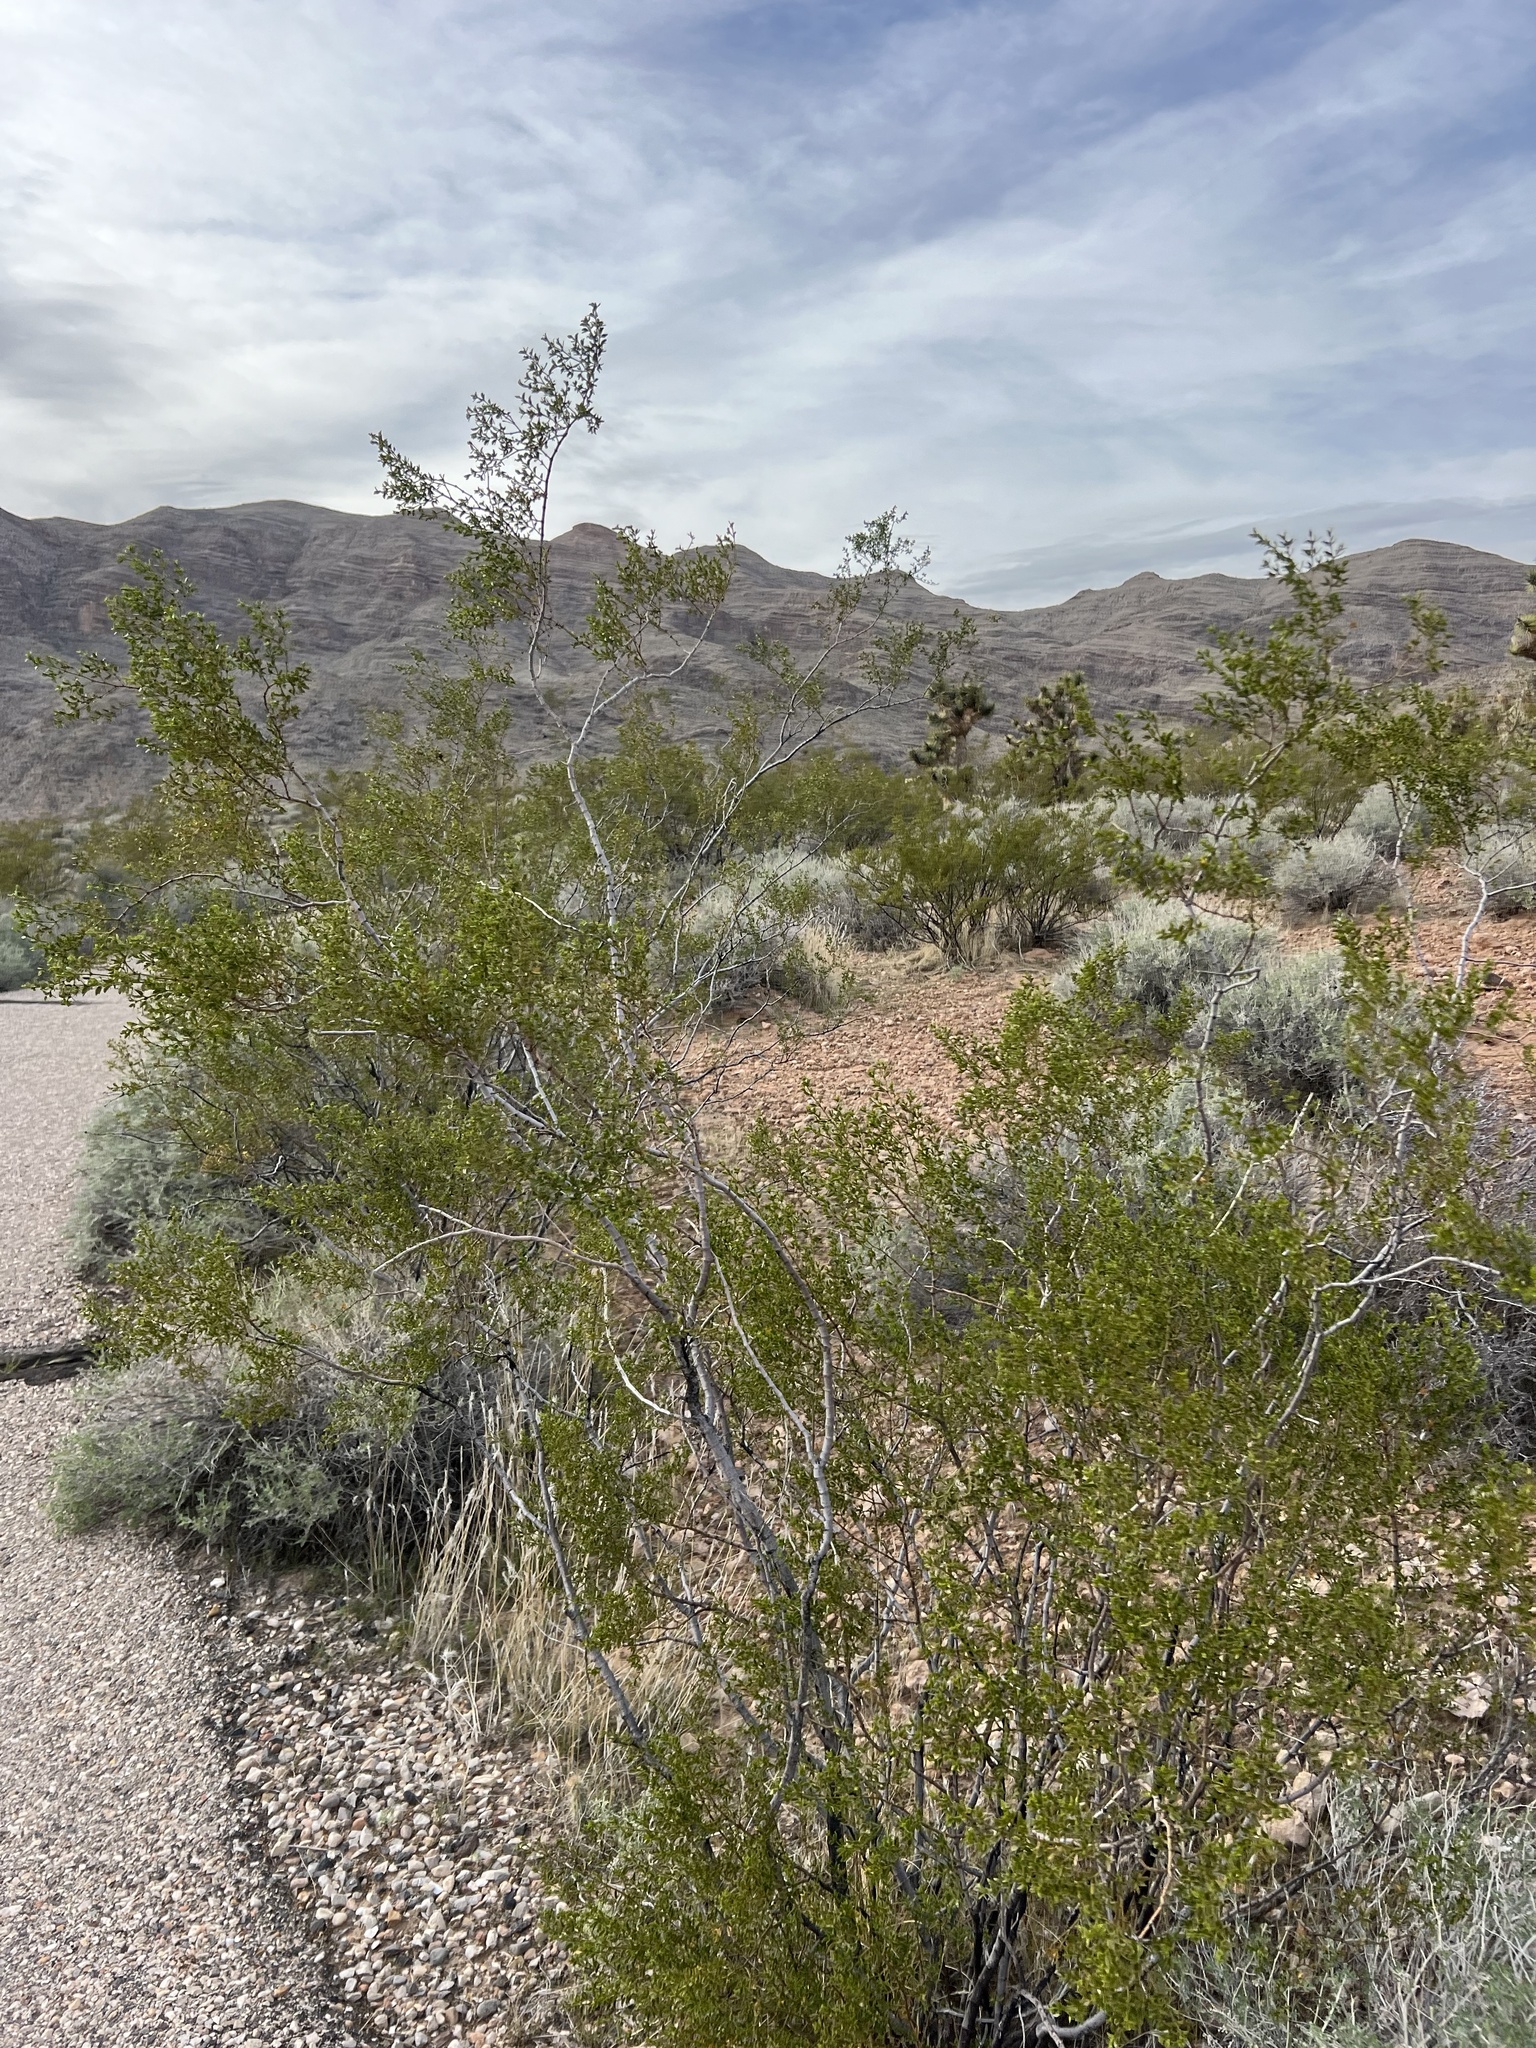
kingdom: Plantae
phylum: Tracheophyta
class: Magnoliopsida
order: Zygophyllales
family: Zygophyllaceae
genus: Larrea
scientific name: Larrea tridentata
